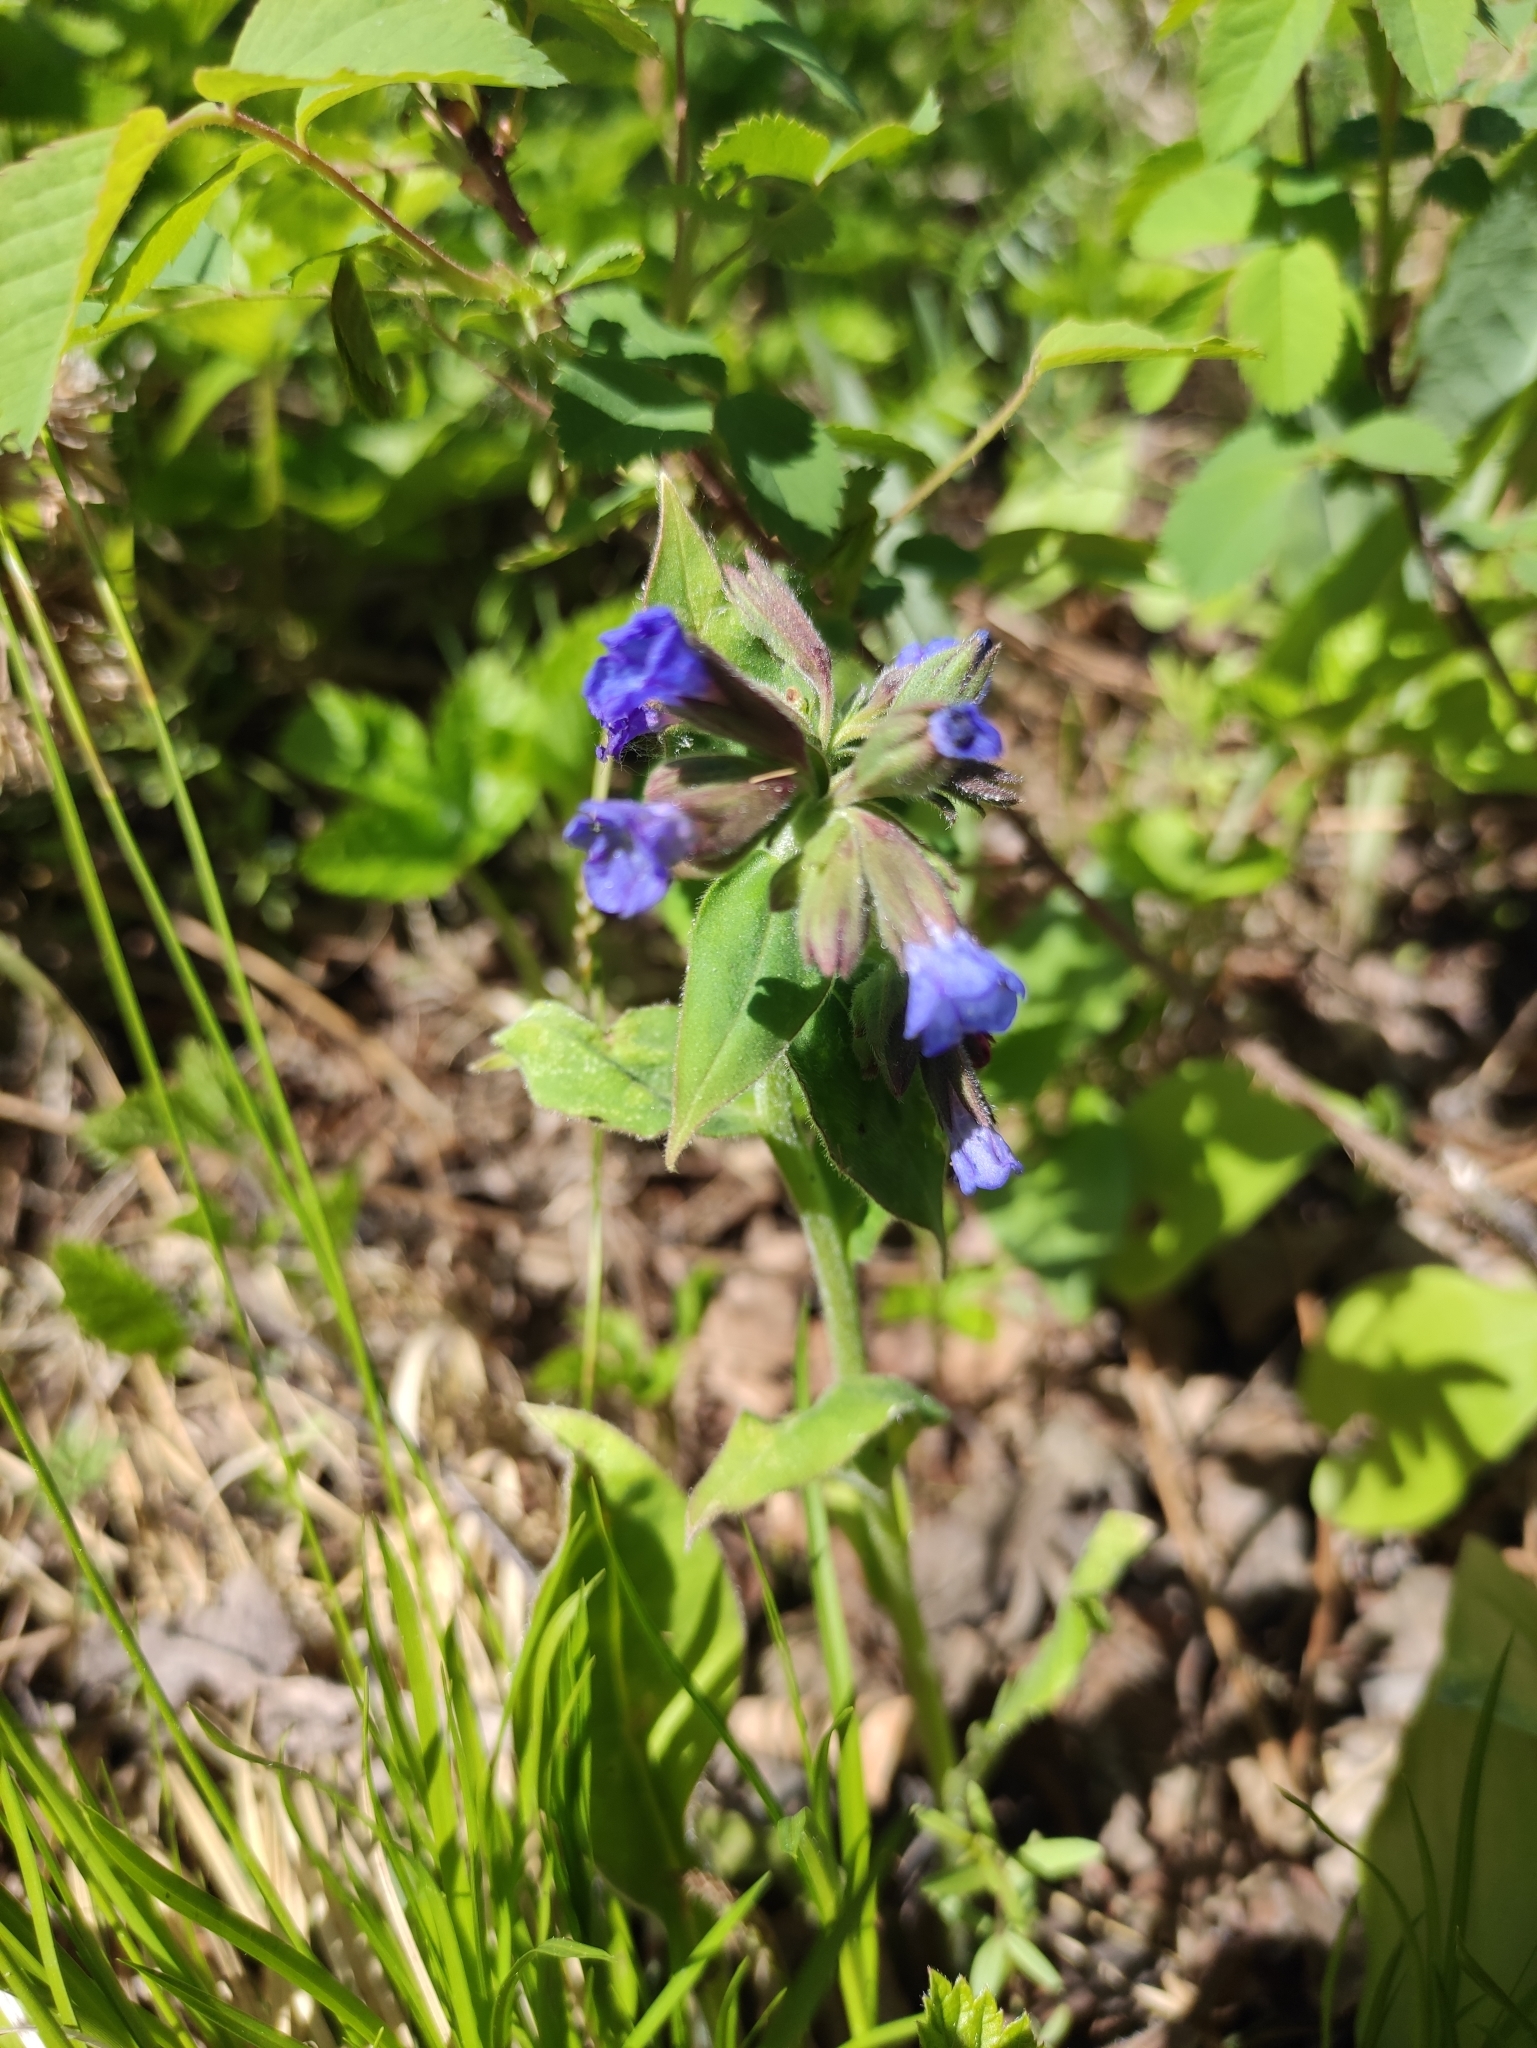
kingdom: Plantae
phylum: Tracheophyta
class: Magnoliopsida
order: Boraginales
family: Boraginaceae
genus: Pulmonaria
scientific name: Pulmonaria mollis
